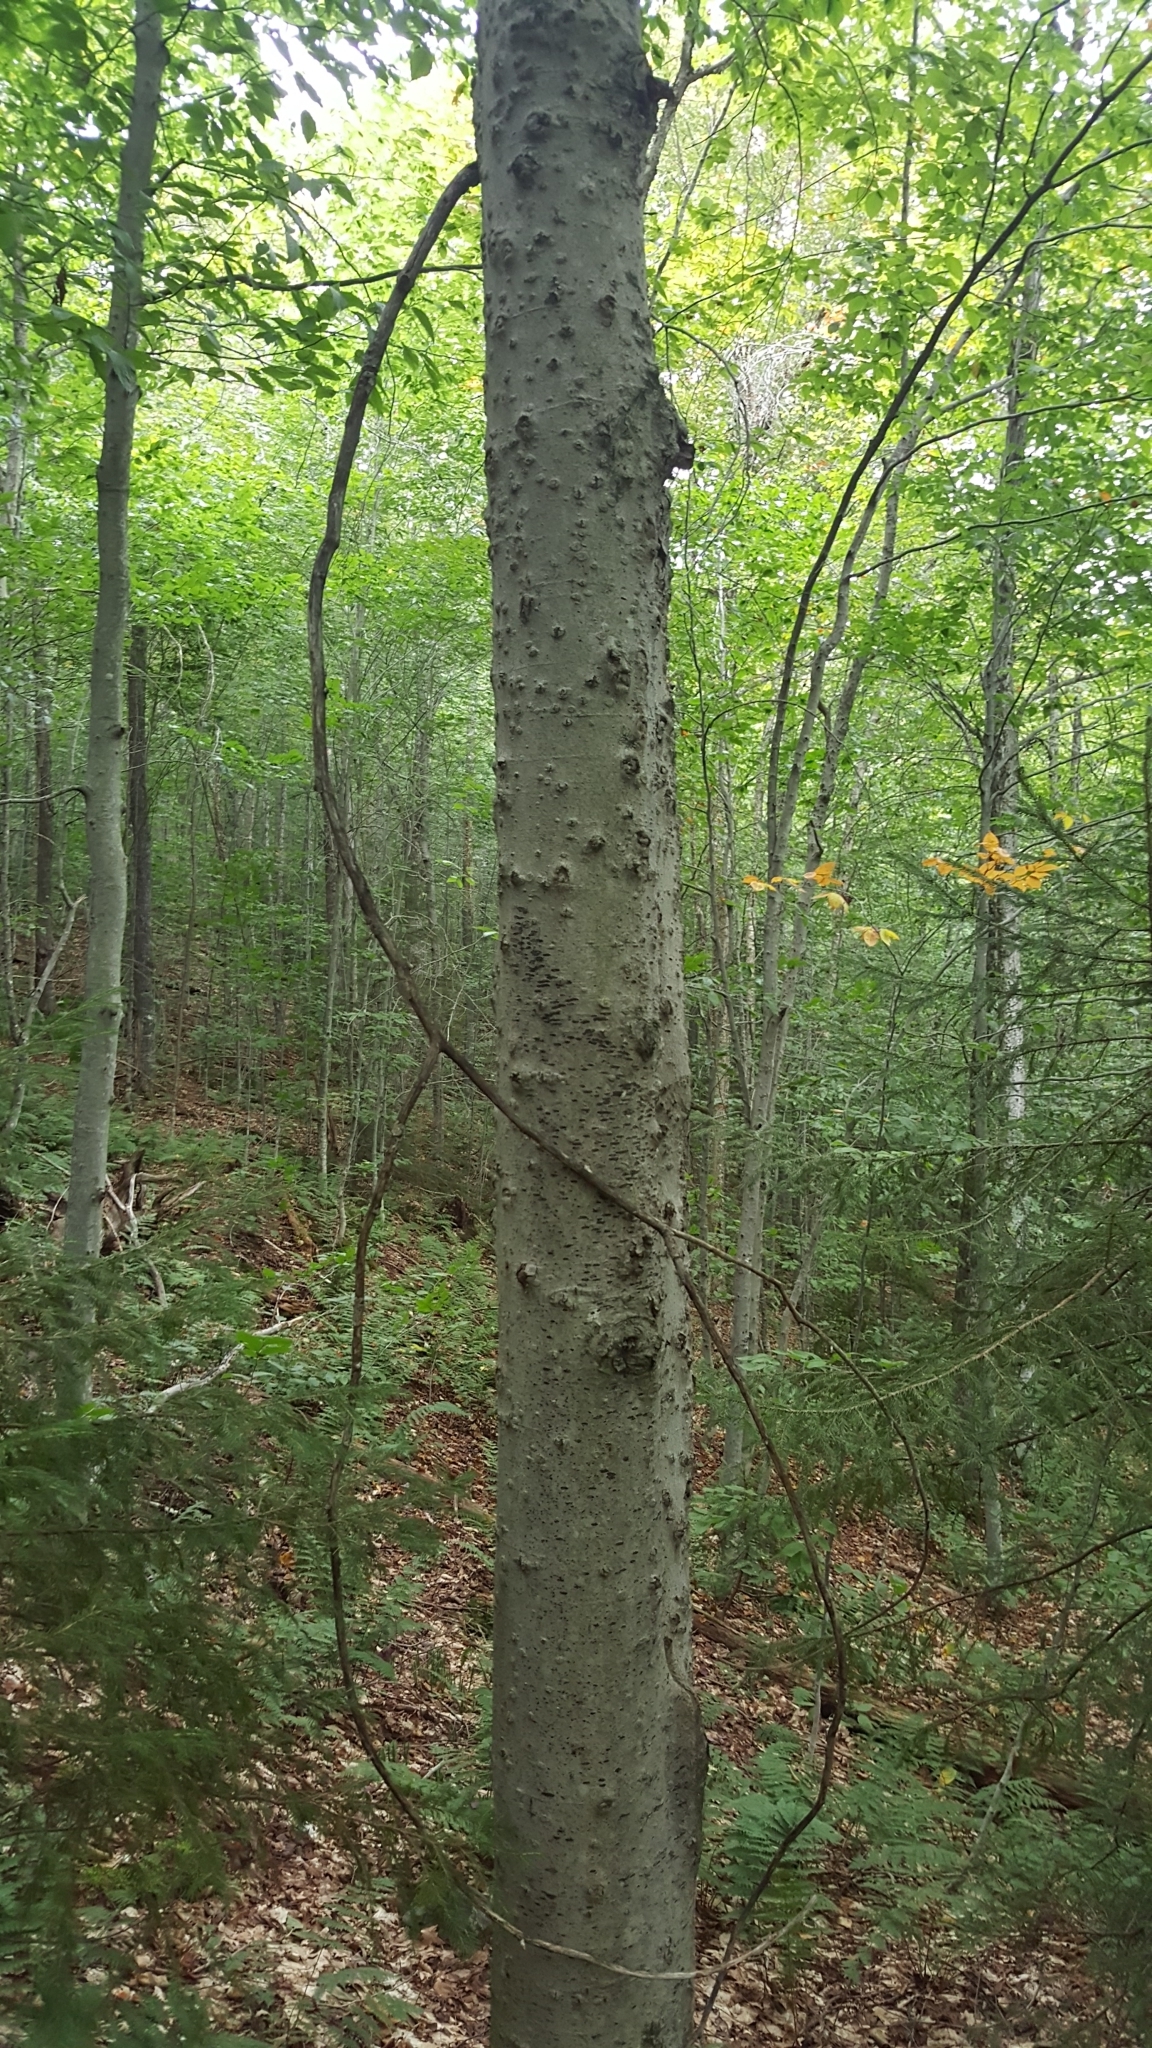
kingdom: Plantae
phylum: Tracheophyta
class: Magnoliopsida
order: Fagales
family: Fagaceae
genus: Fagus
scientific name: Fagus grandifolia
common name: American beech
